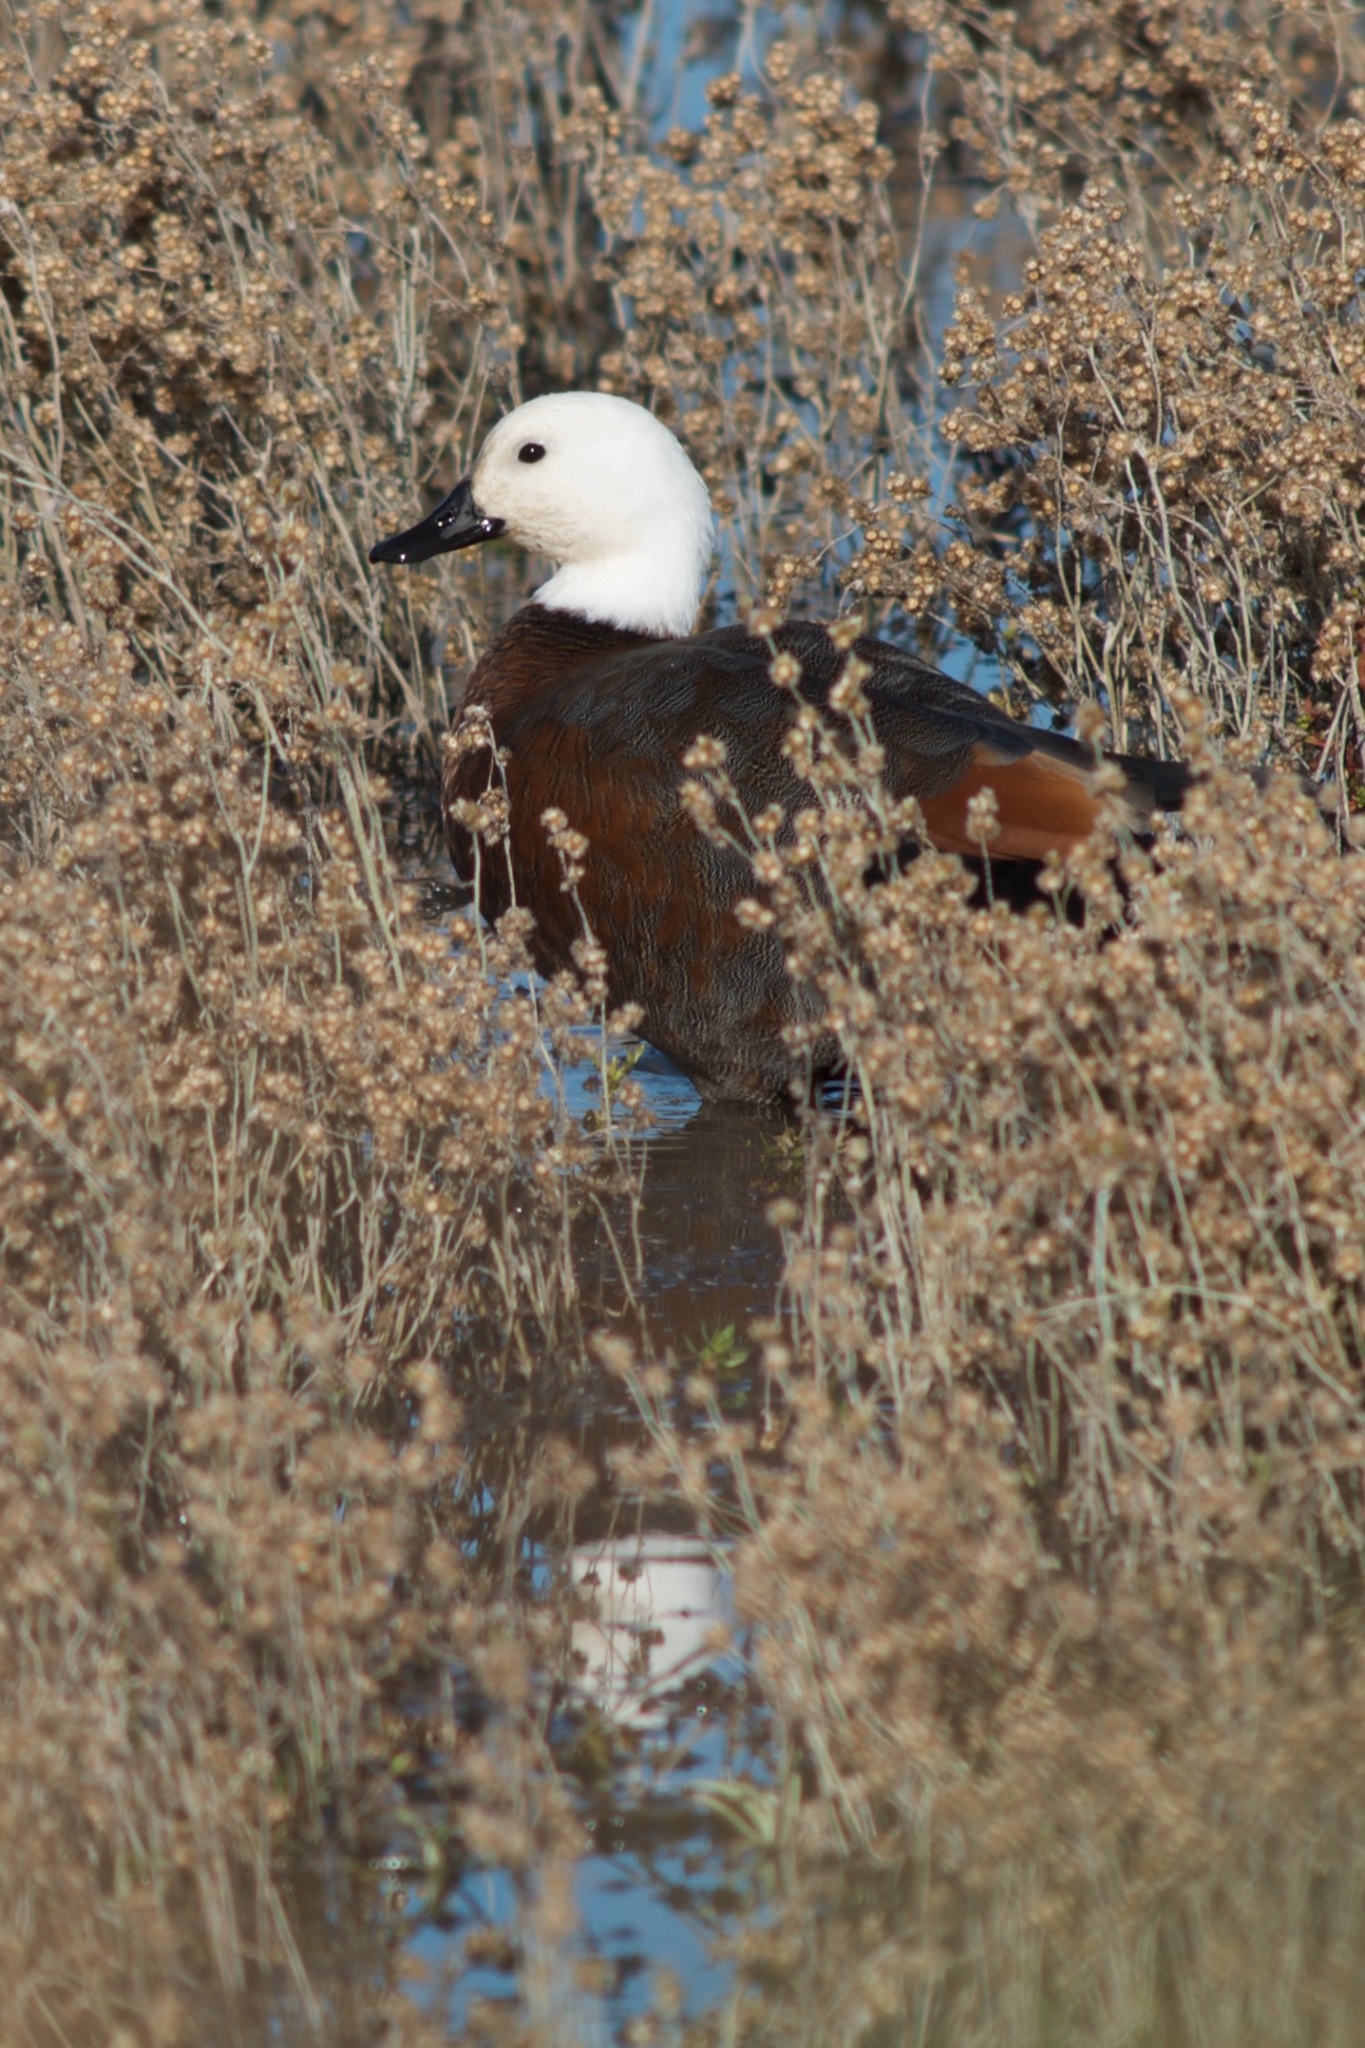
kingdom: Animalia
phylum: Chordata
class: Aves
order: Anseriformes
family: Anatidae
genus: Tadorna
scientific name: Tadorna variegata
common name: Paradise shelduck
